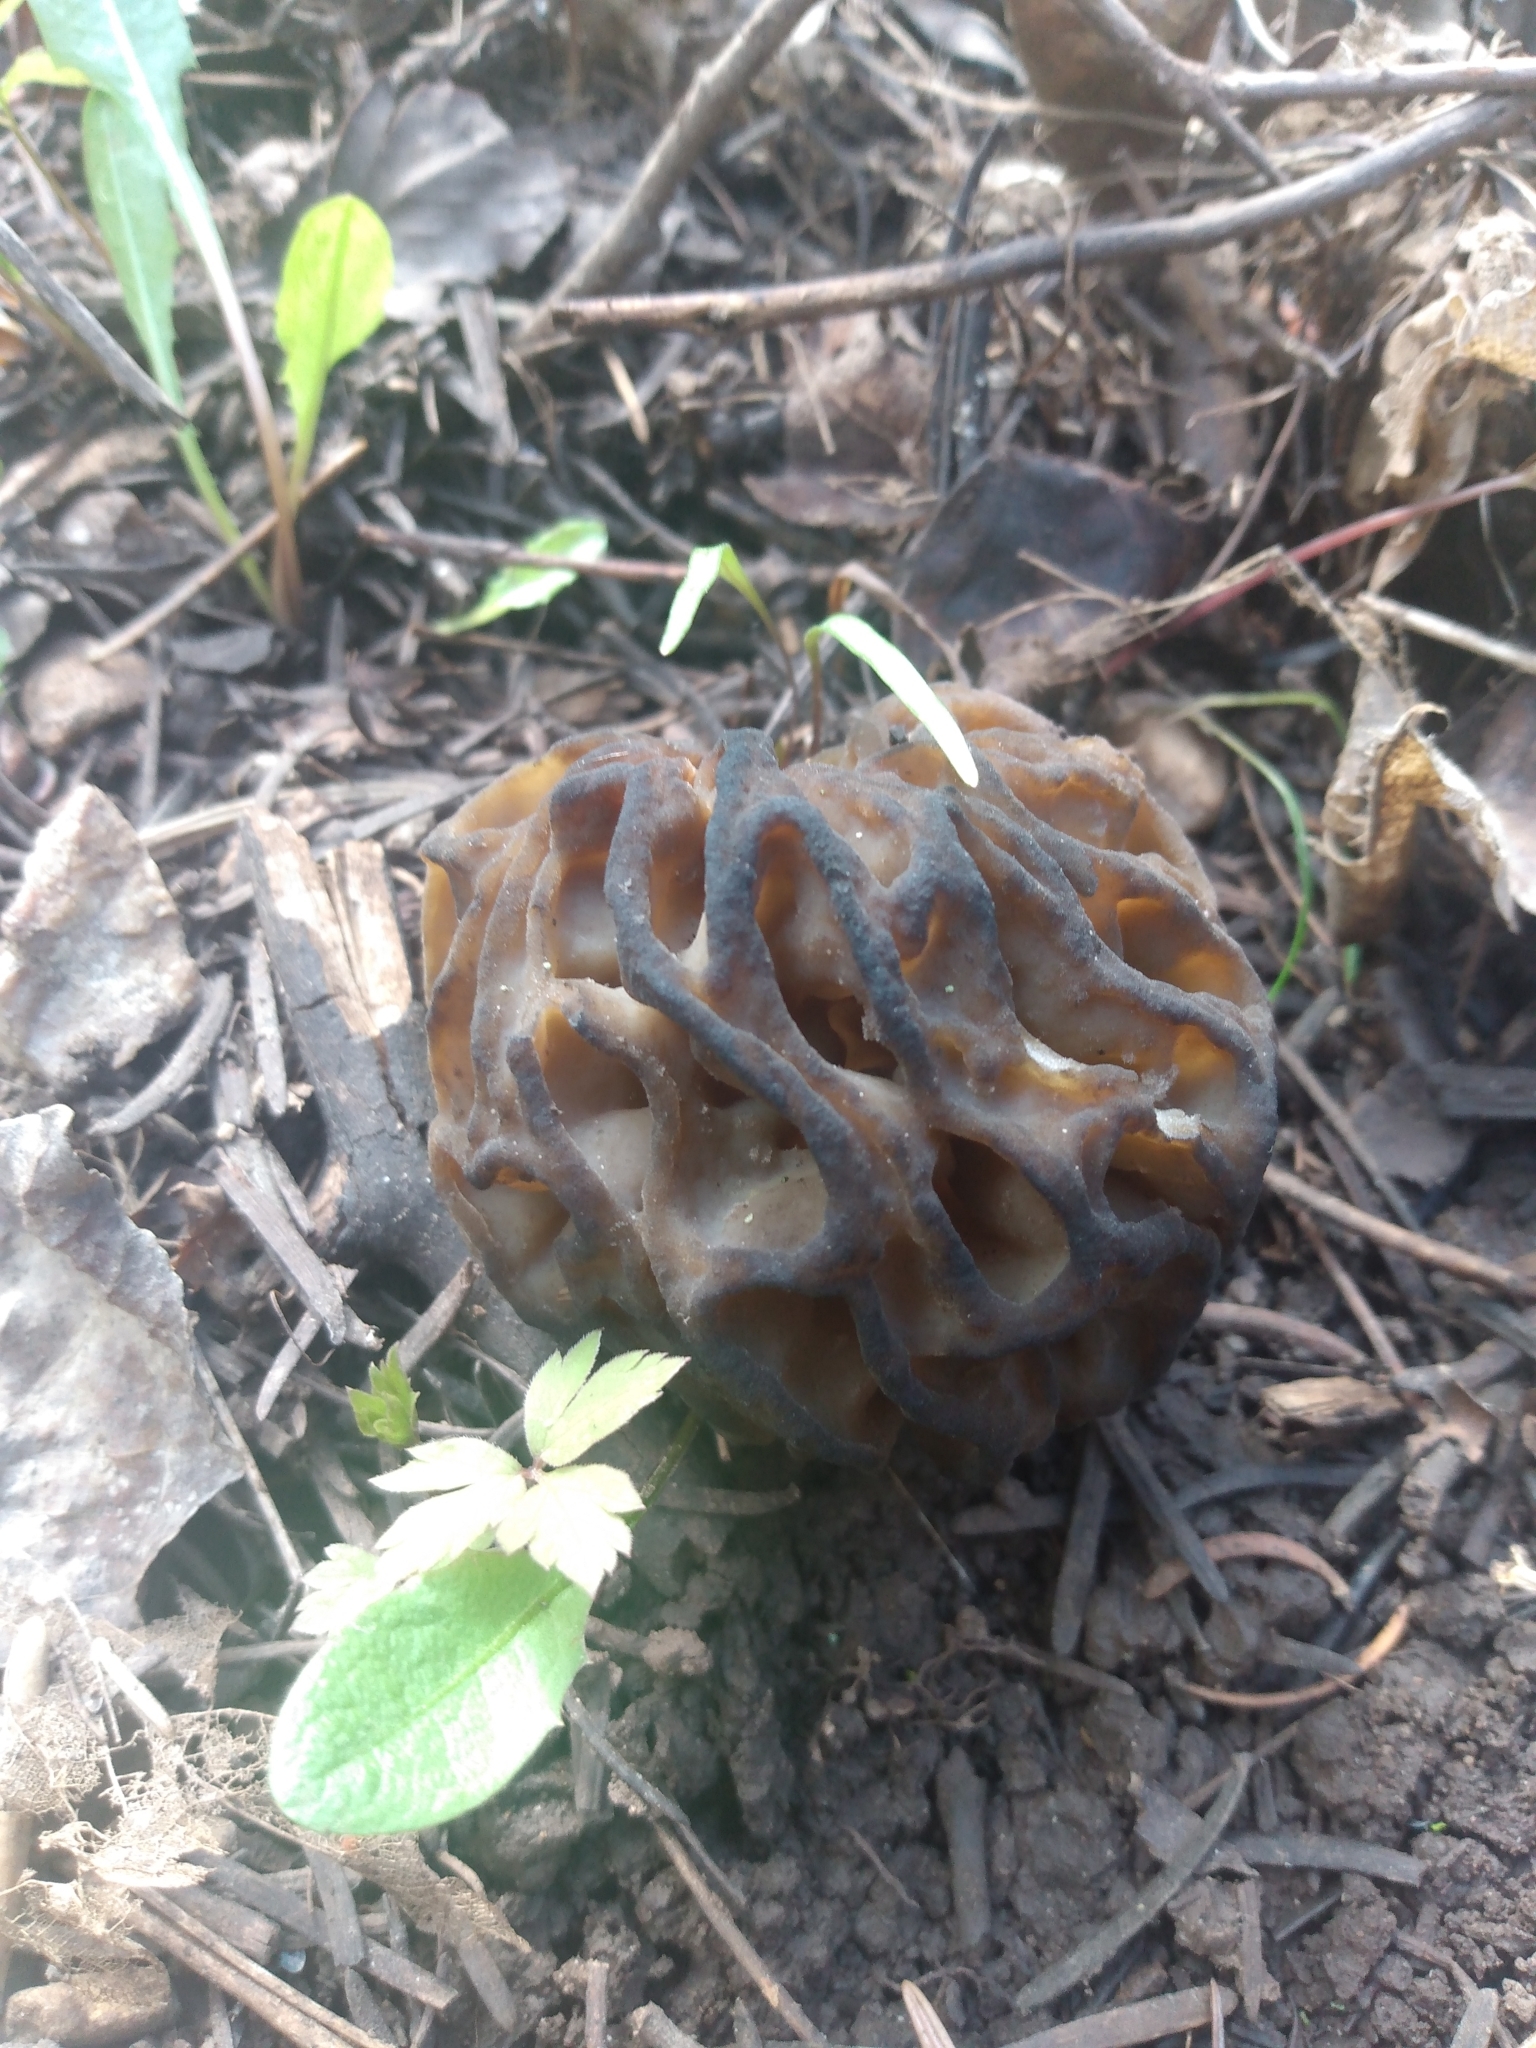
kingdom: Fungi
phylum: Ascomycota
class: Pezizomycetes
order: Pezizales
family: Morchellaceae
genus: Morchella
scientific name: Morchella snyderi
